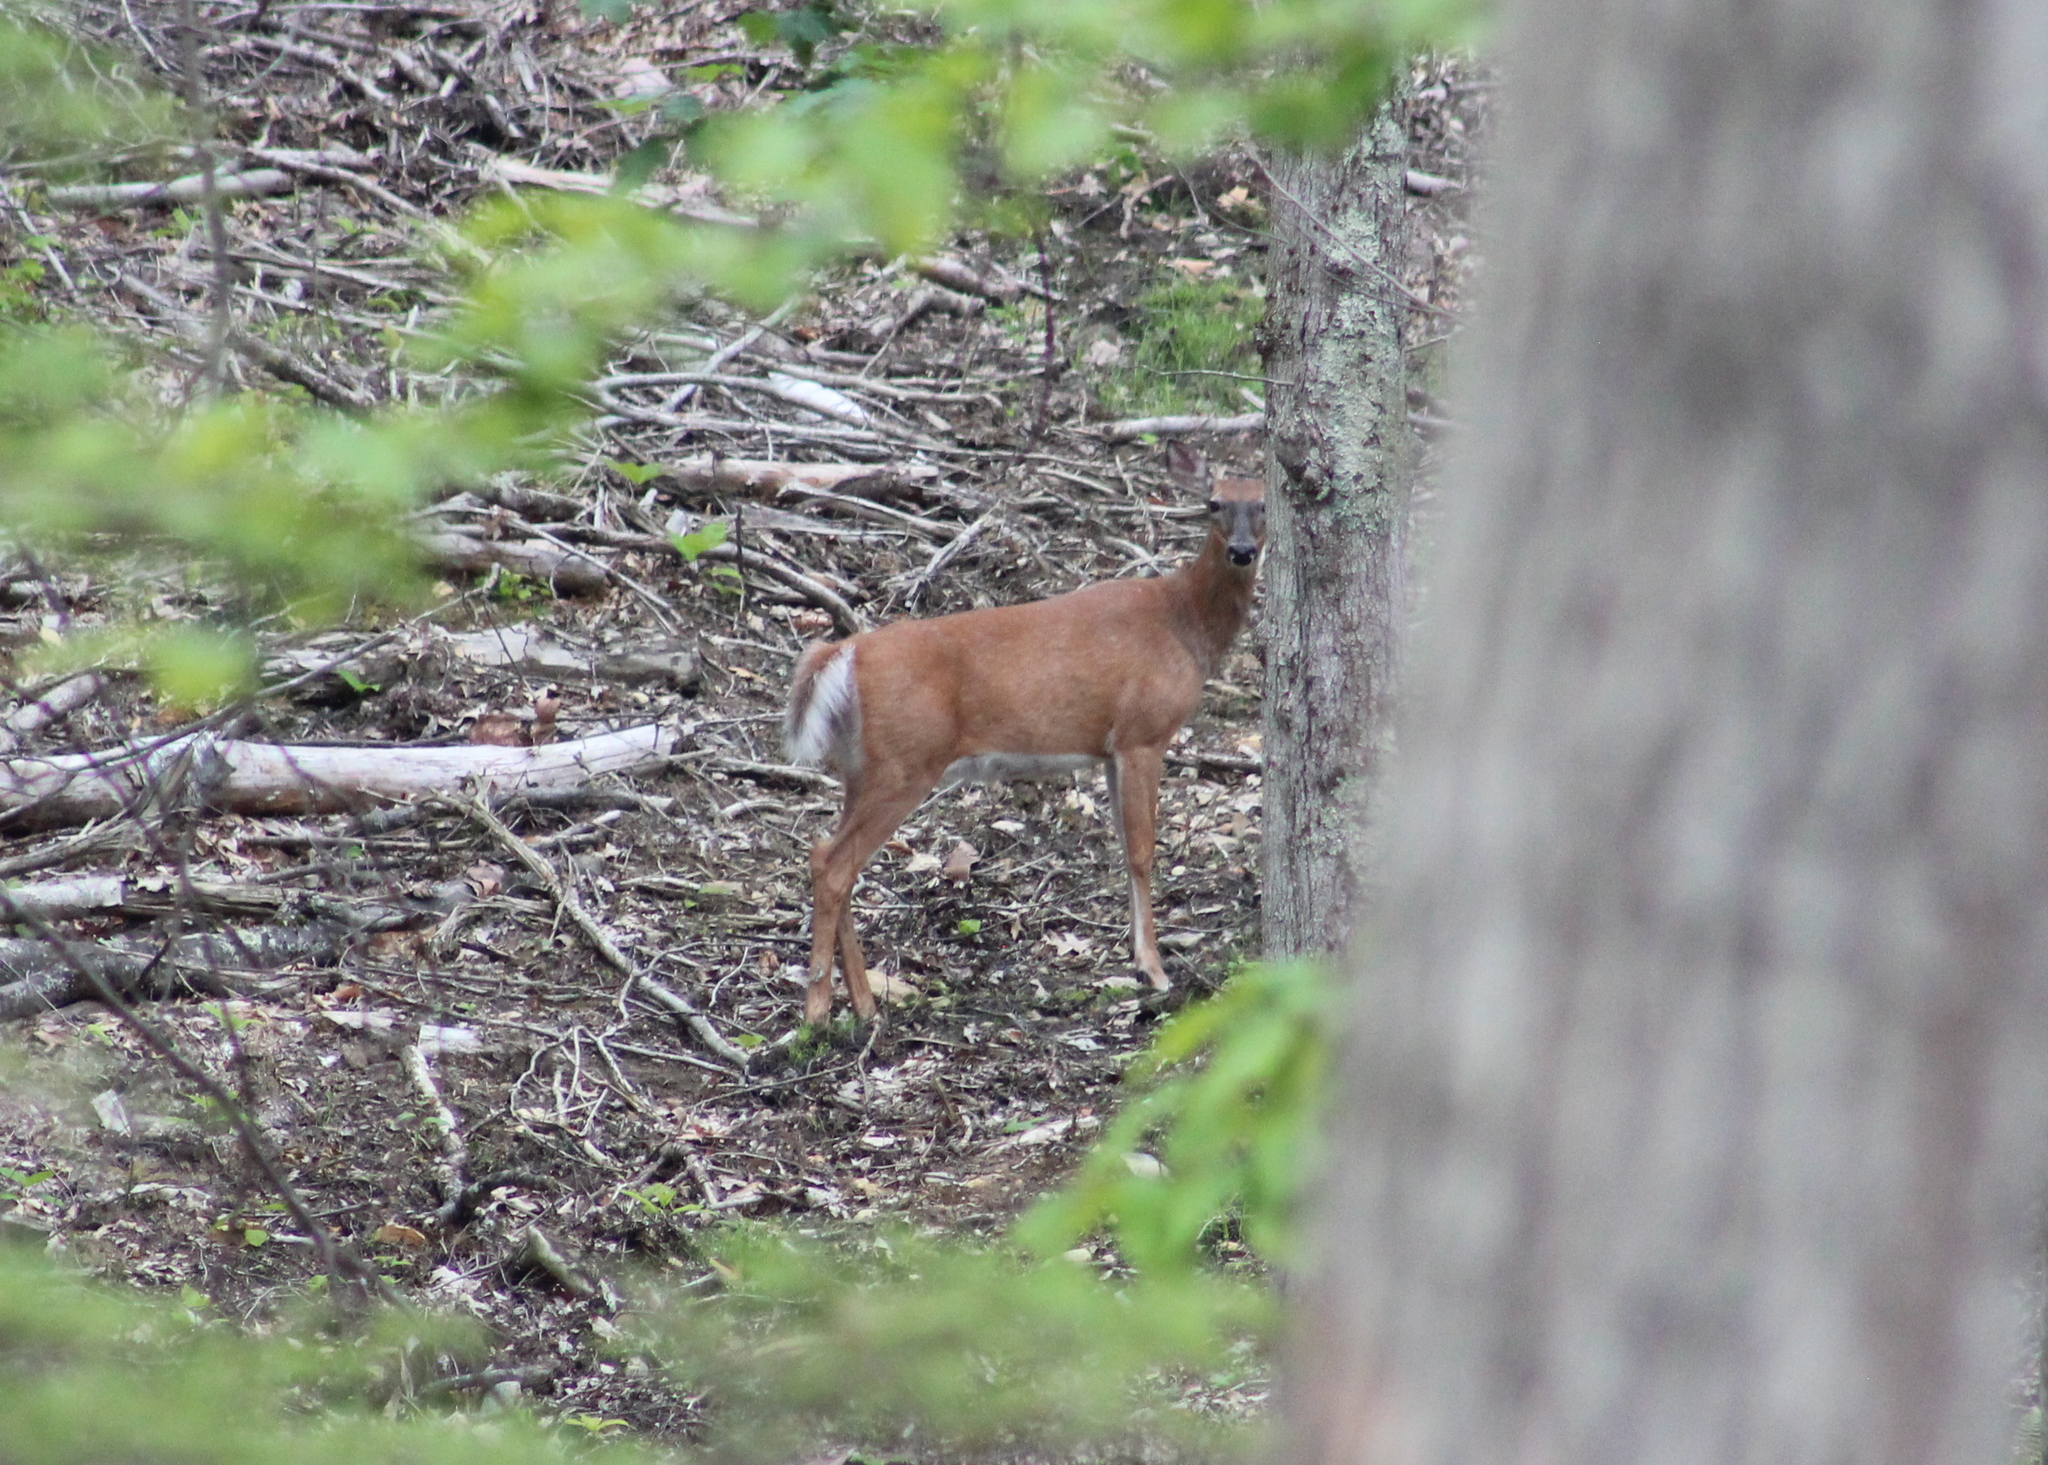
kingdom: Animalia
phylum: Chordata
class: Mammalia
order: Artiodactyla
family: Cervidae
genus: Odocoileus
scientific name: Odocoileus virginianus
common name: White-tailed deer
